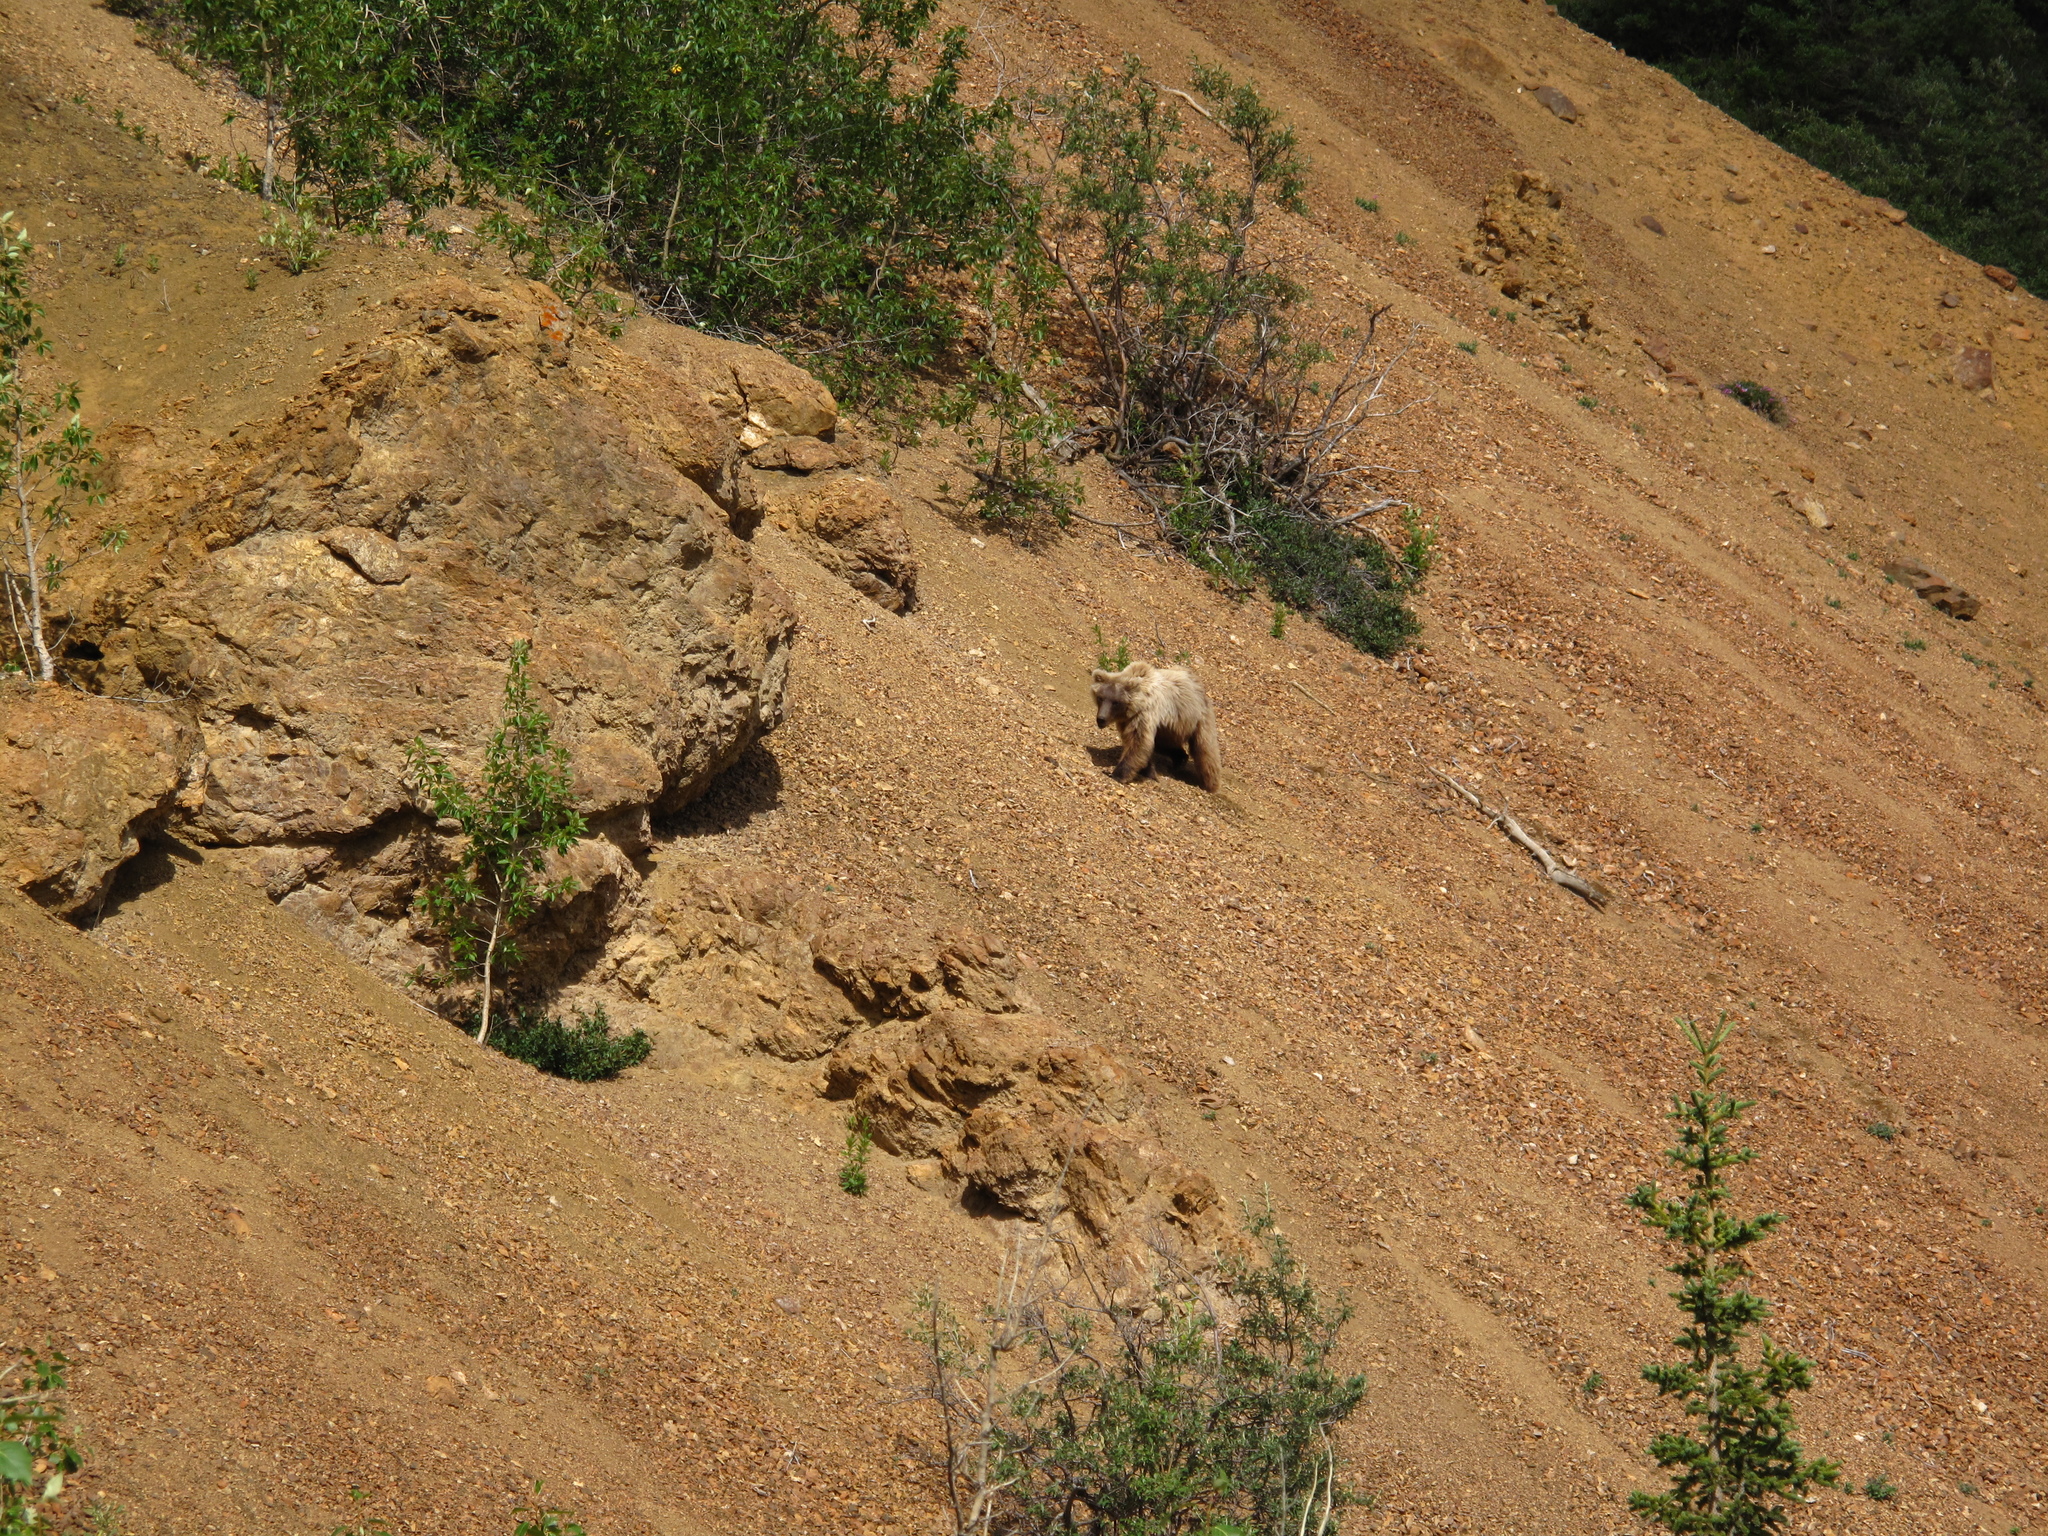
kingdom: Animalia
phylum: Chordata
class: Mammalia
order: Carnivora
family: Ursidae
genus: Ursus
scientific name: Ursus arctos
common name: Brown bear
